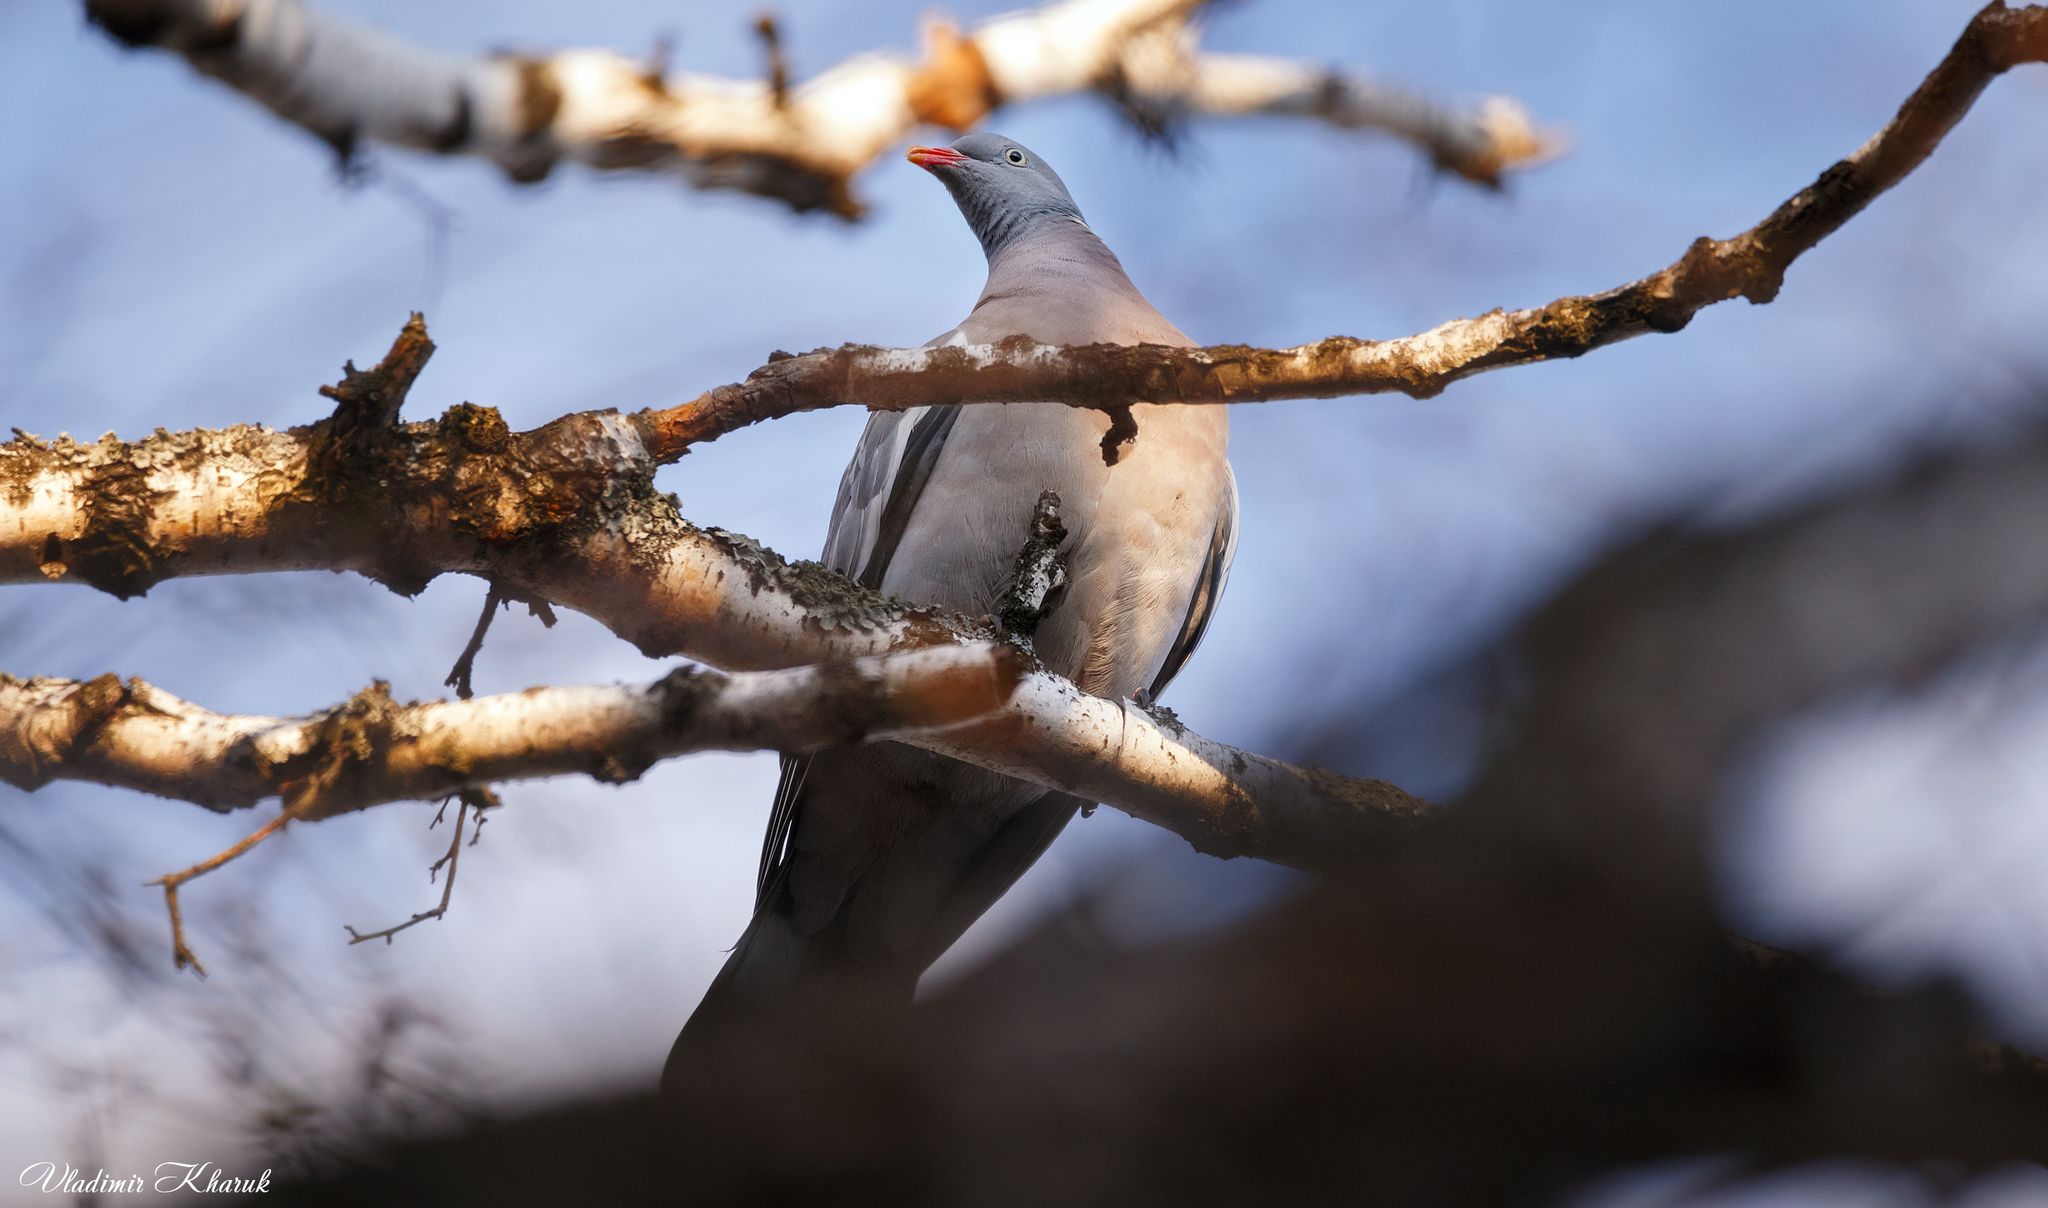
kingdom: Animalia
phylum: Chordata
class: Aves
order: Columbiformes
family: Columbidae
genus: Columba
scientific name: Columba palumbus
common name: Common wood pigeon
